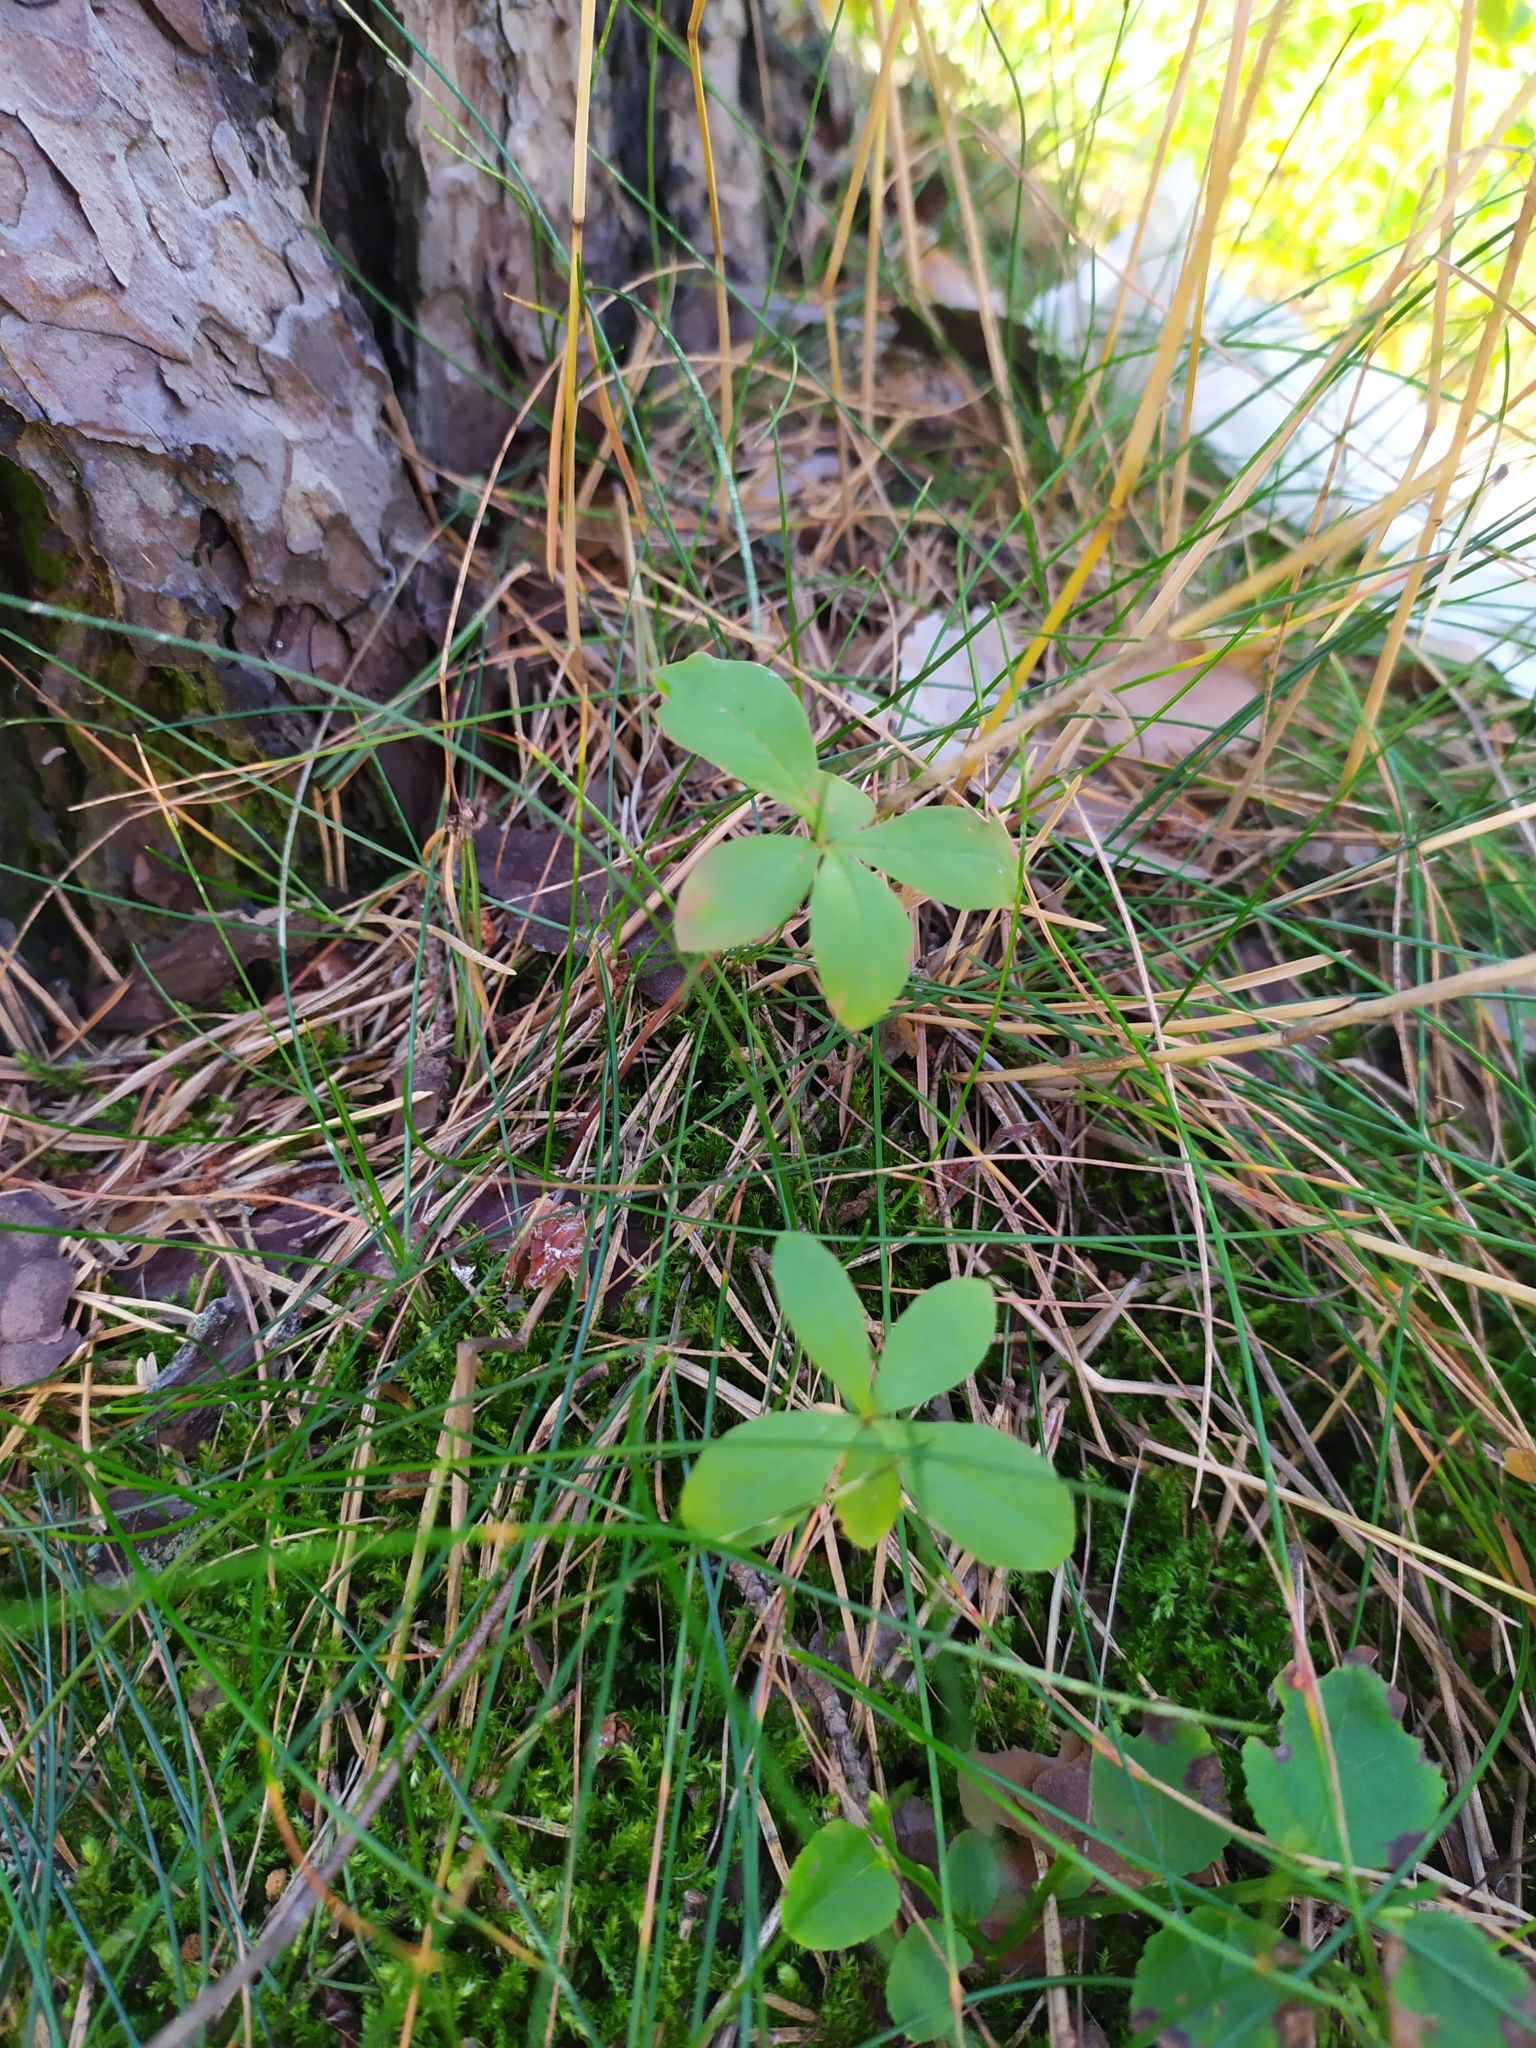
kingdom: Plantae
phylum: Tracheophyta
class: Magnoliopsida
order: Ericales
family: Primulaceae
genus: Lysimachia
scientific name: Lysimachia europaea
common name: Arctic starflower
